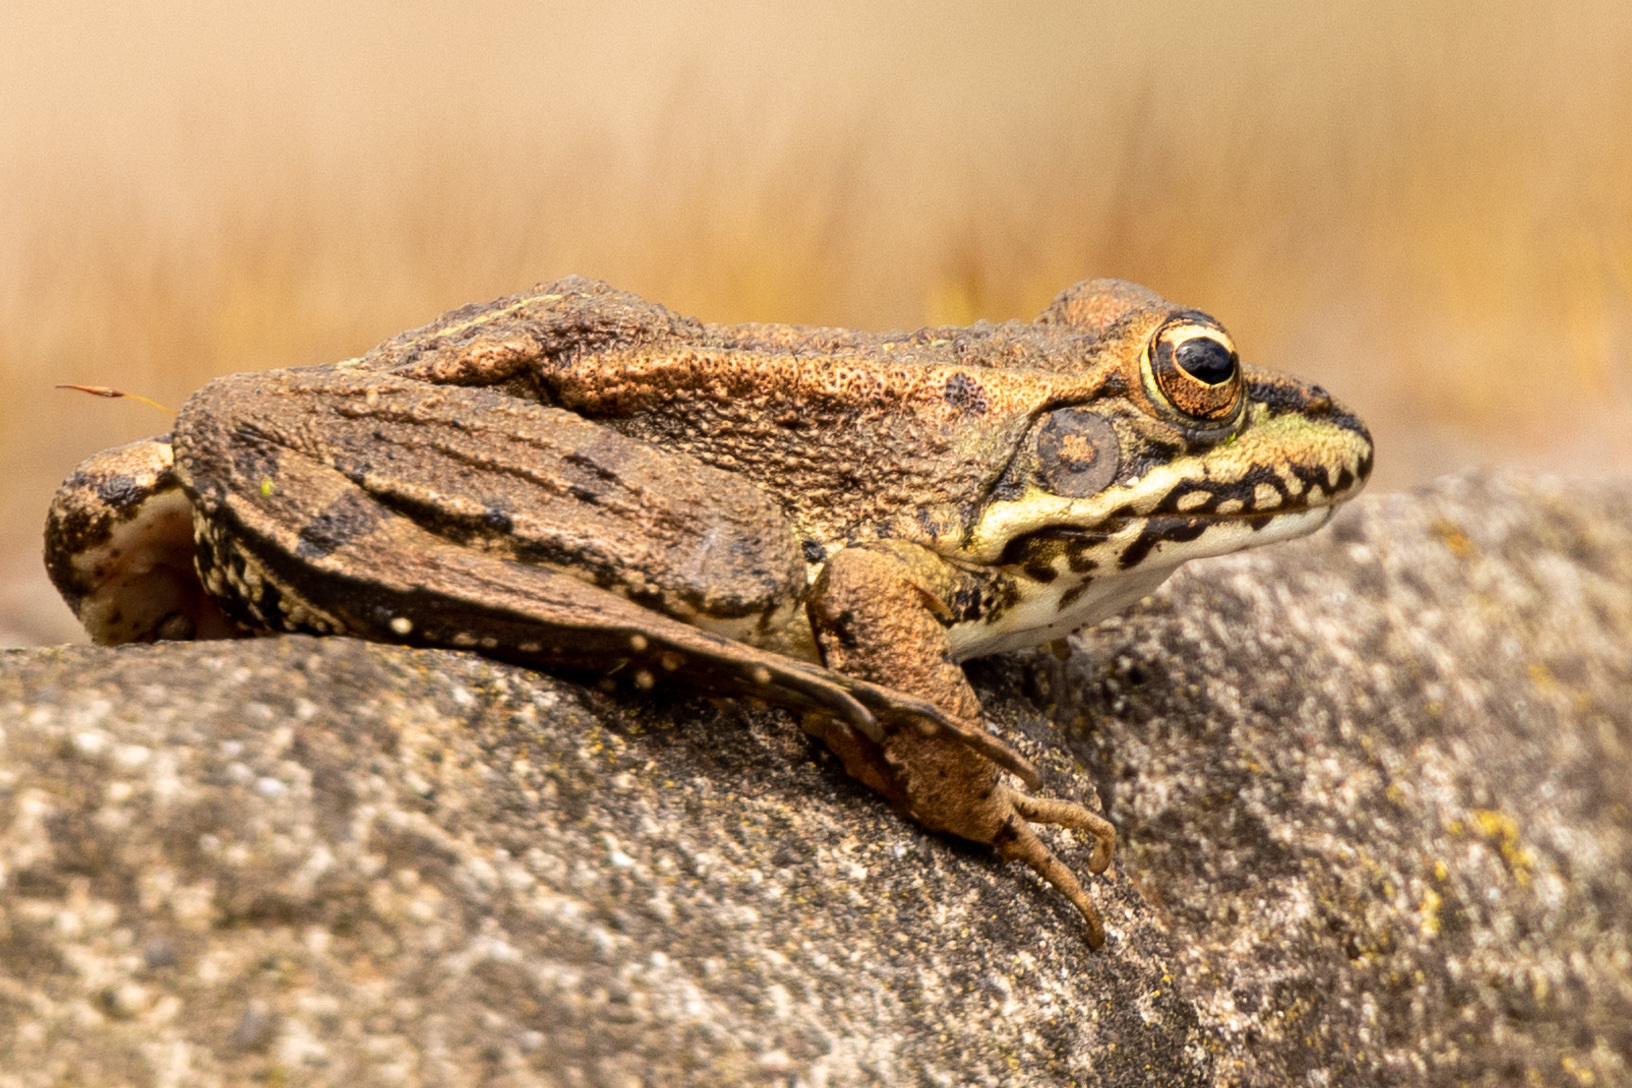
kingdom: Animalia
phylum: Chordata
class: Amphibia
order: Anura
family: Ranidae
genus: Pelophylax
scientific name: Pelophylax perezi
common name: Perez's frog
